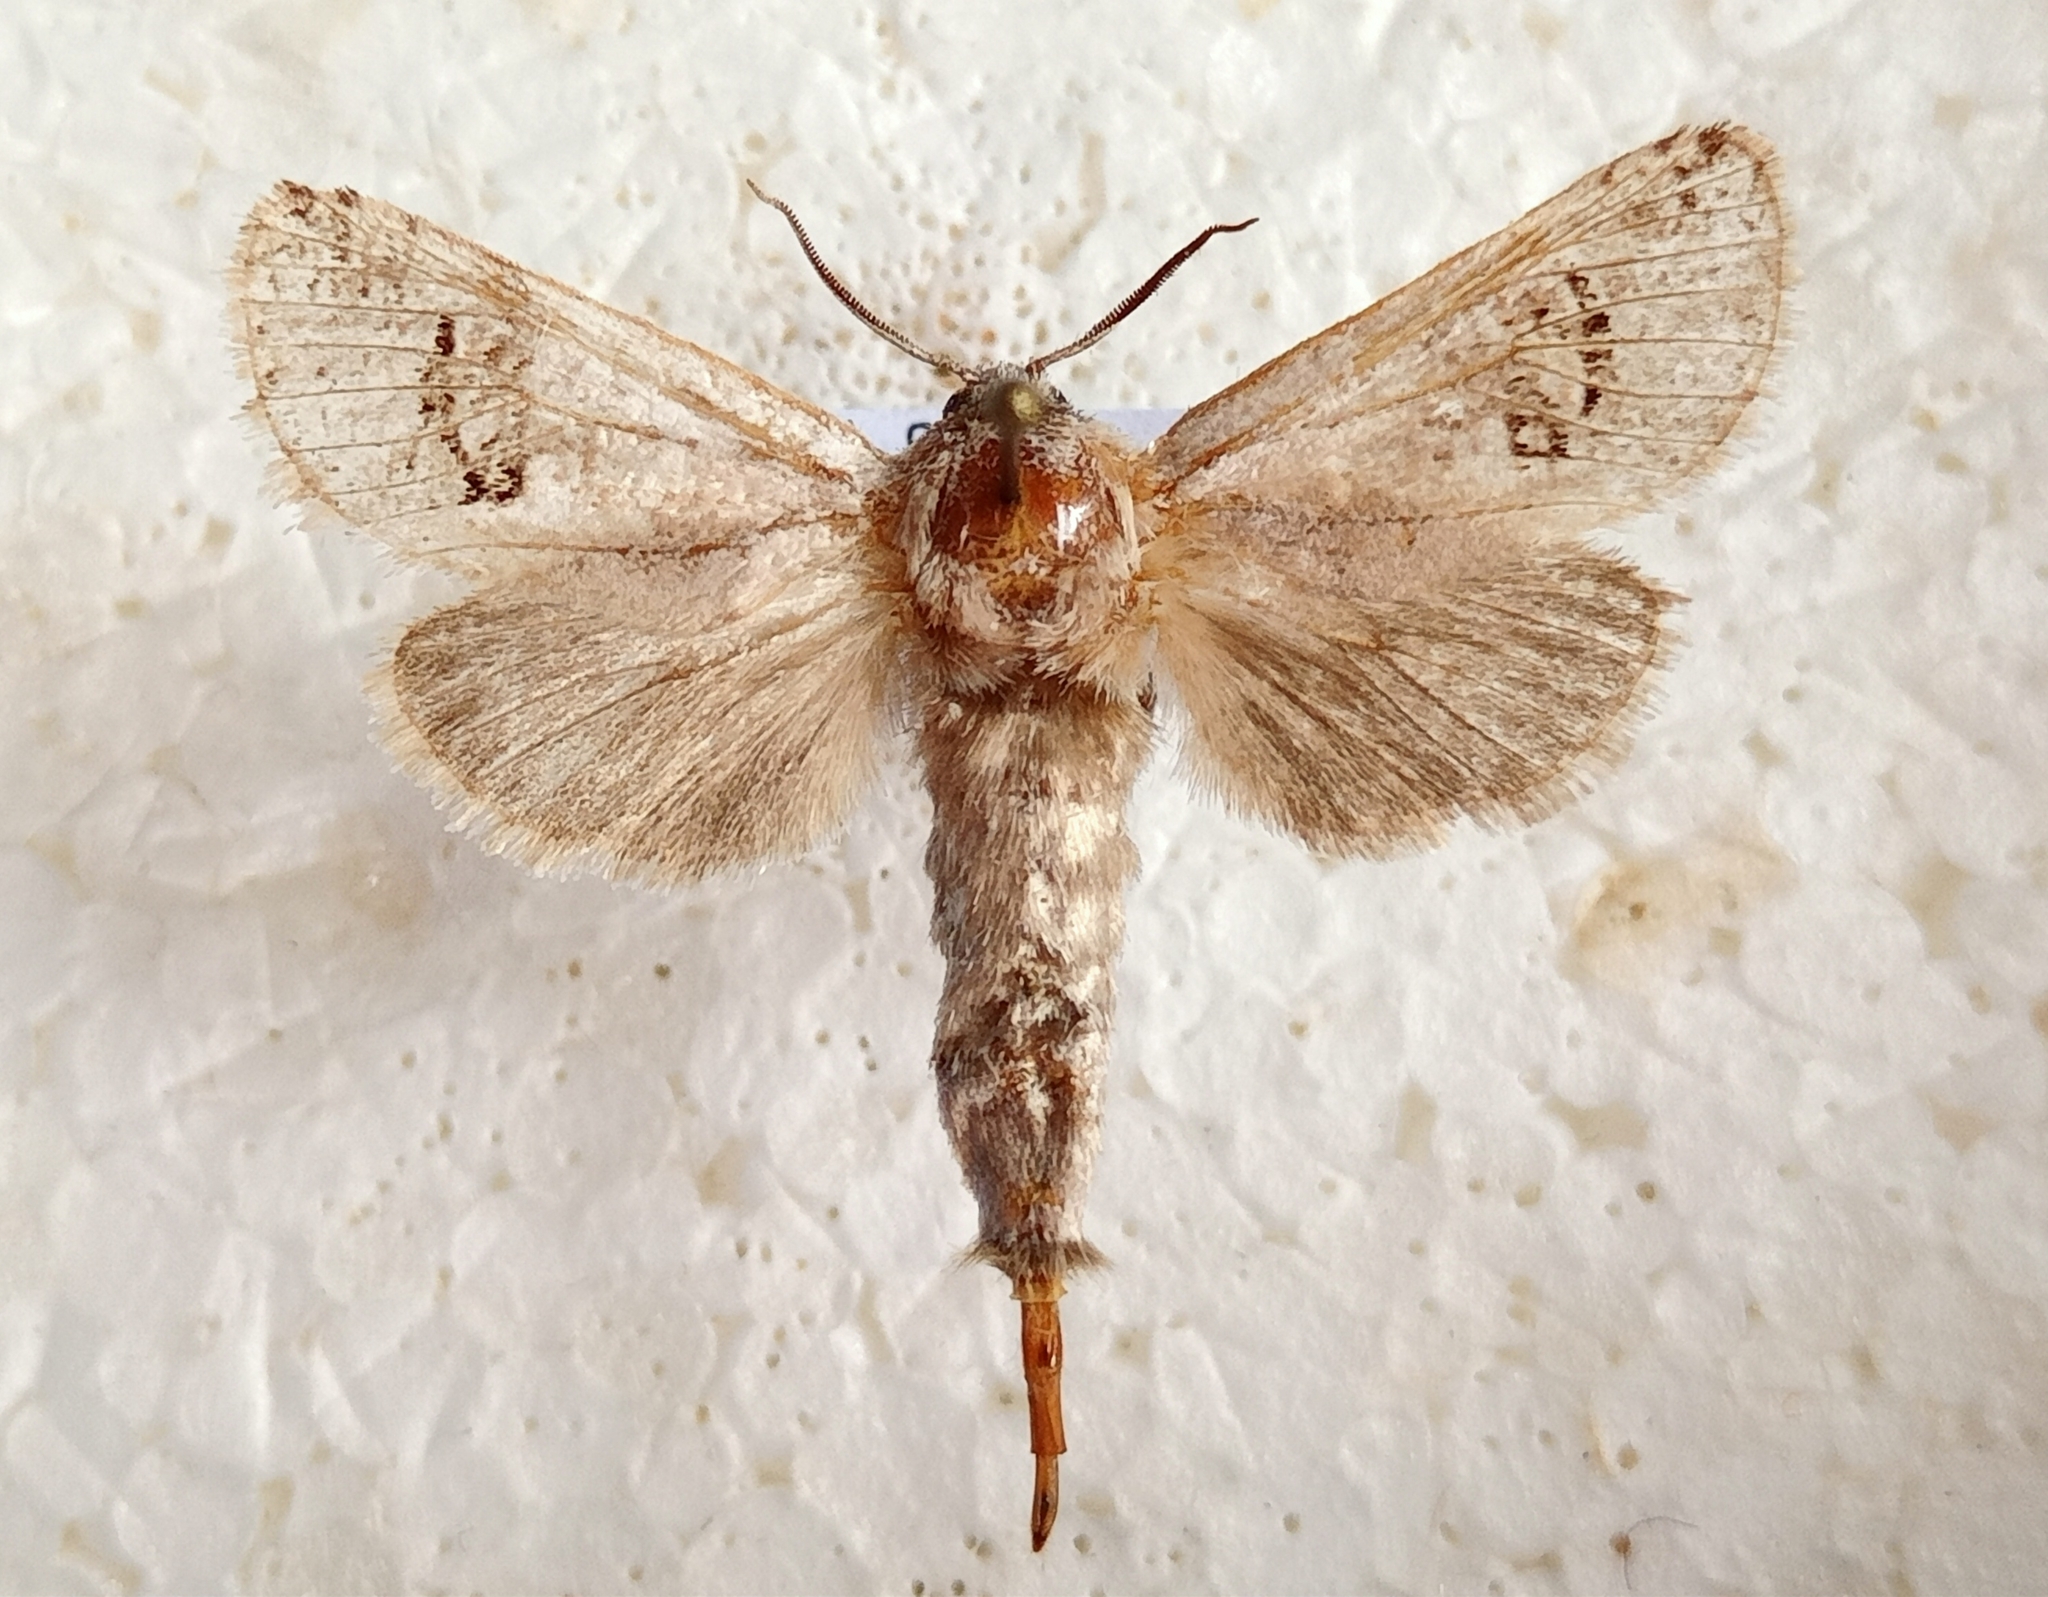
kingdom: Animalia
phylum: Arthropoda
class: Insecta
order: Lepidoptera
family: Cossidae
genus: Parahypopta
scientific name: Parahypopta caestrum
